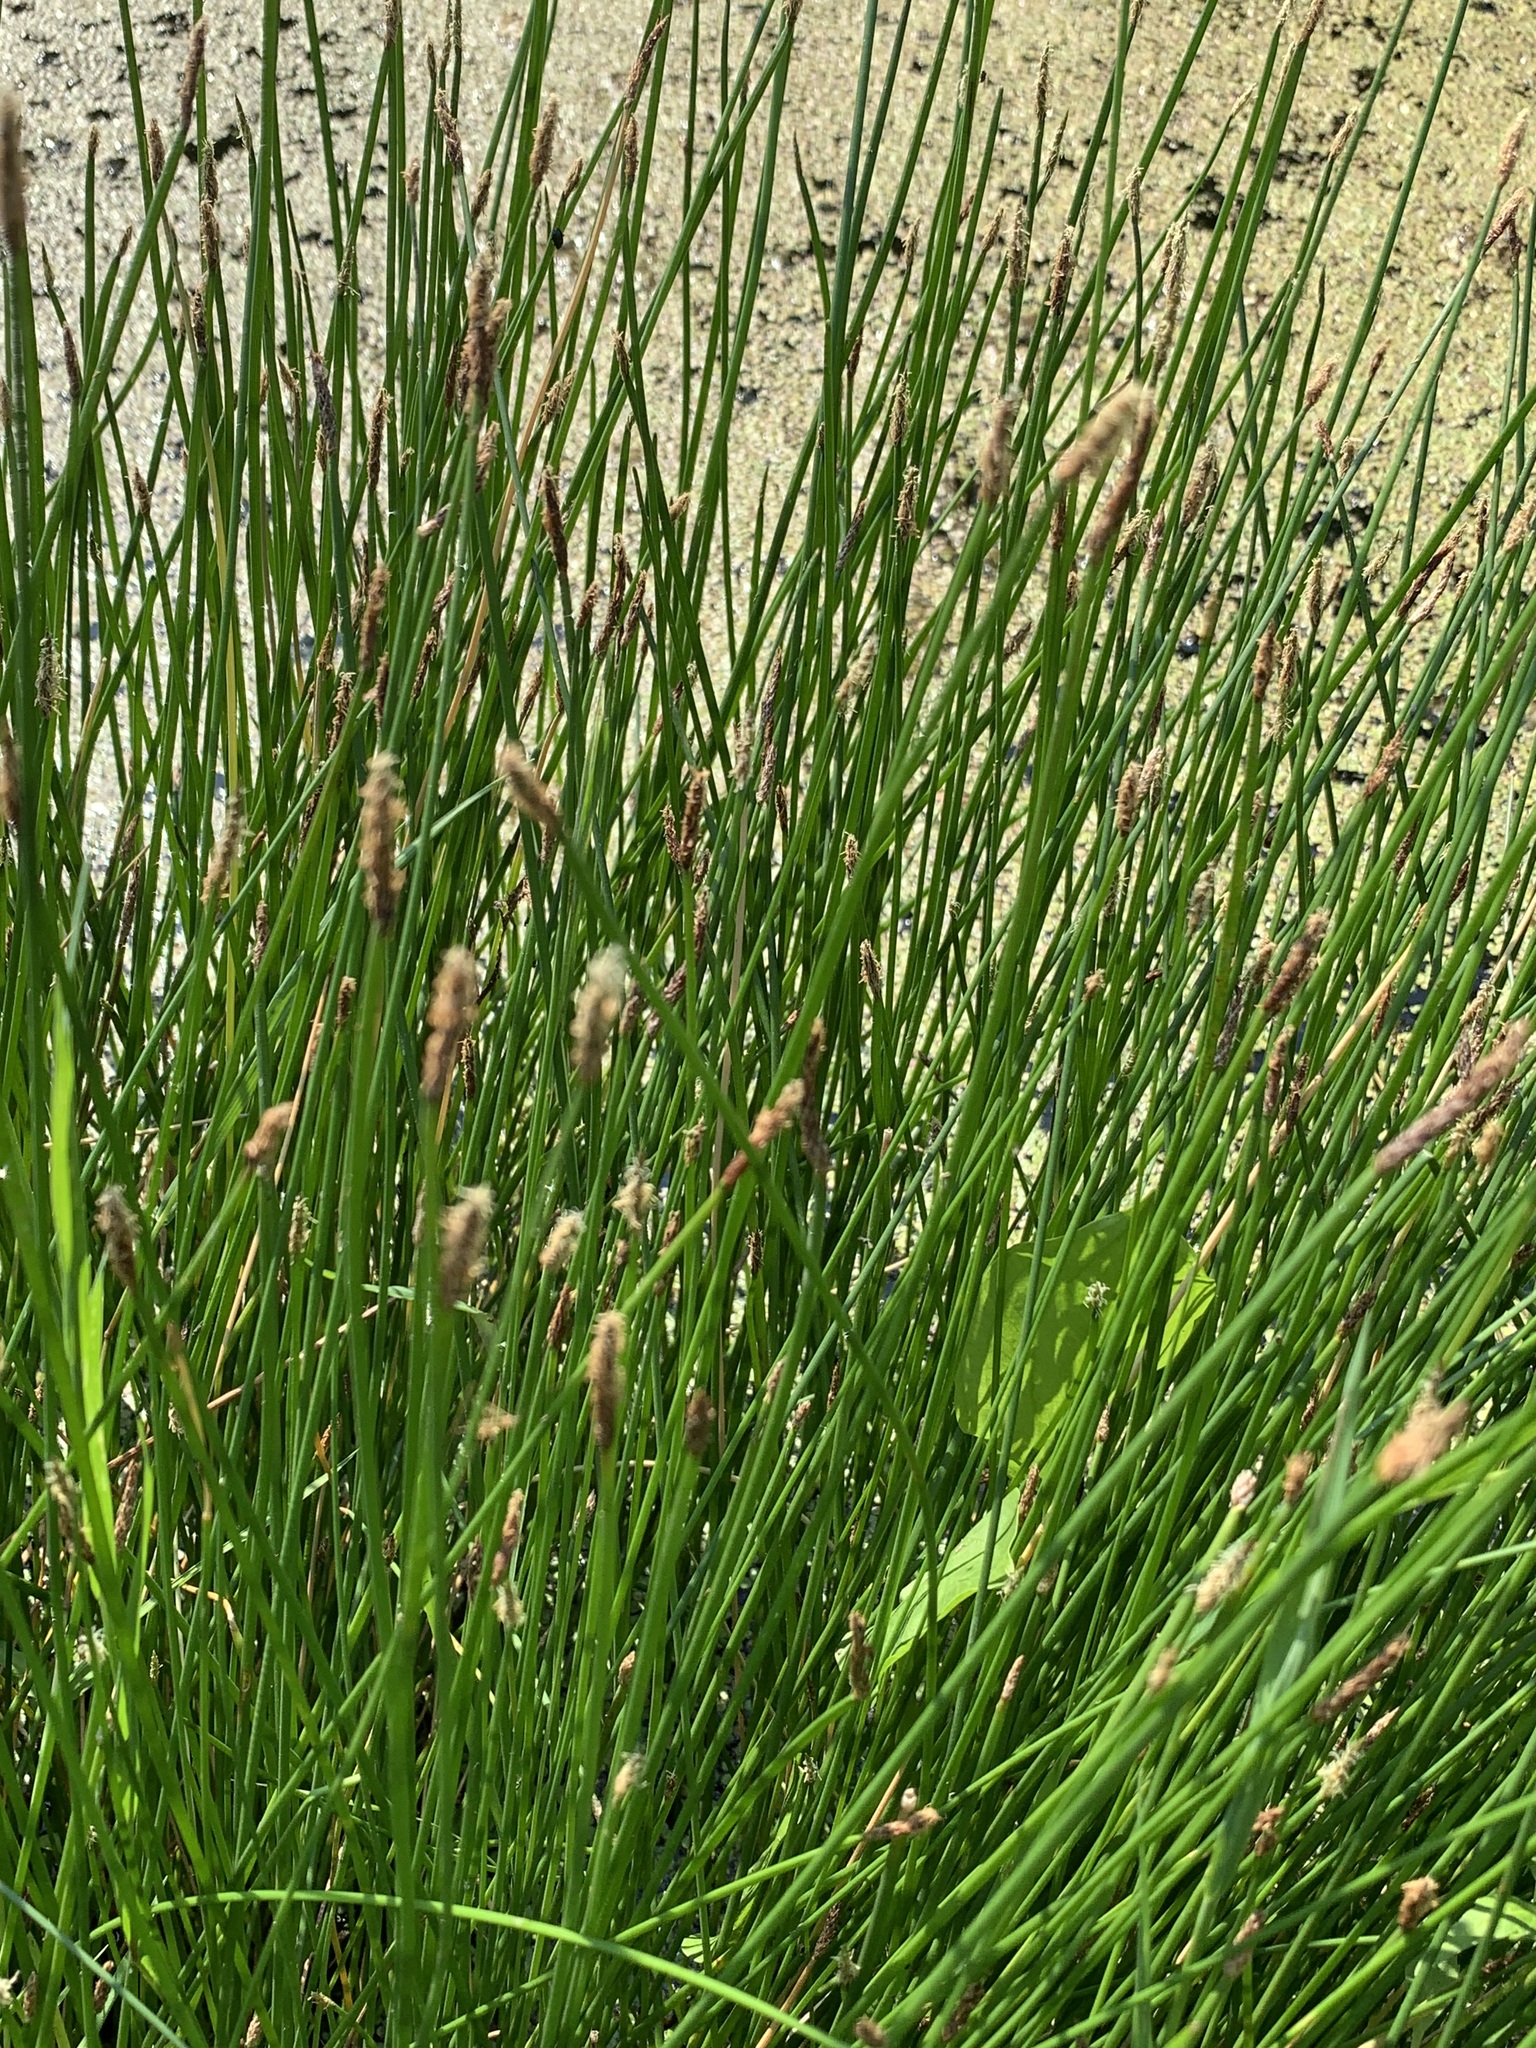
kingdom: Plantae
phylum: Tracheophyta
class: Liliopsida
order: Poales
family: Cyperaceae
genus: Eleocharis
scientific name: Eleocharis palustris
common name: Common spike-rush
